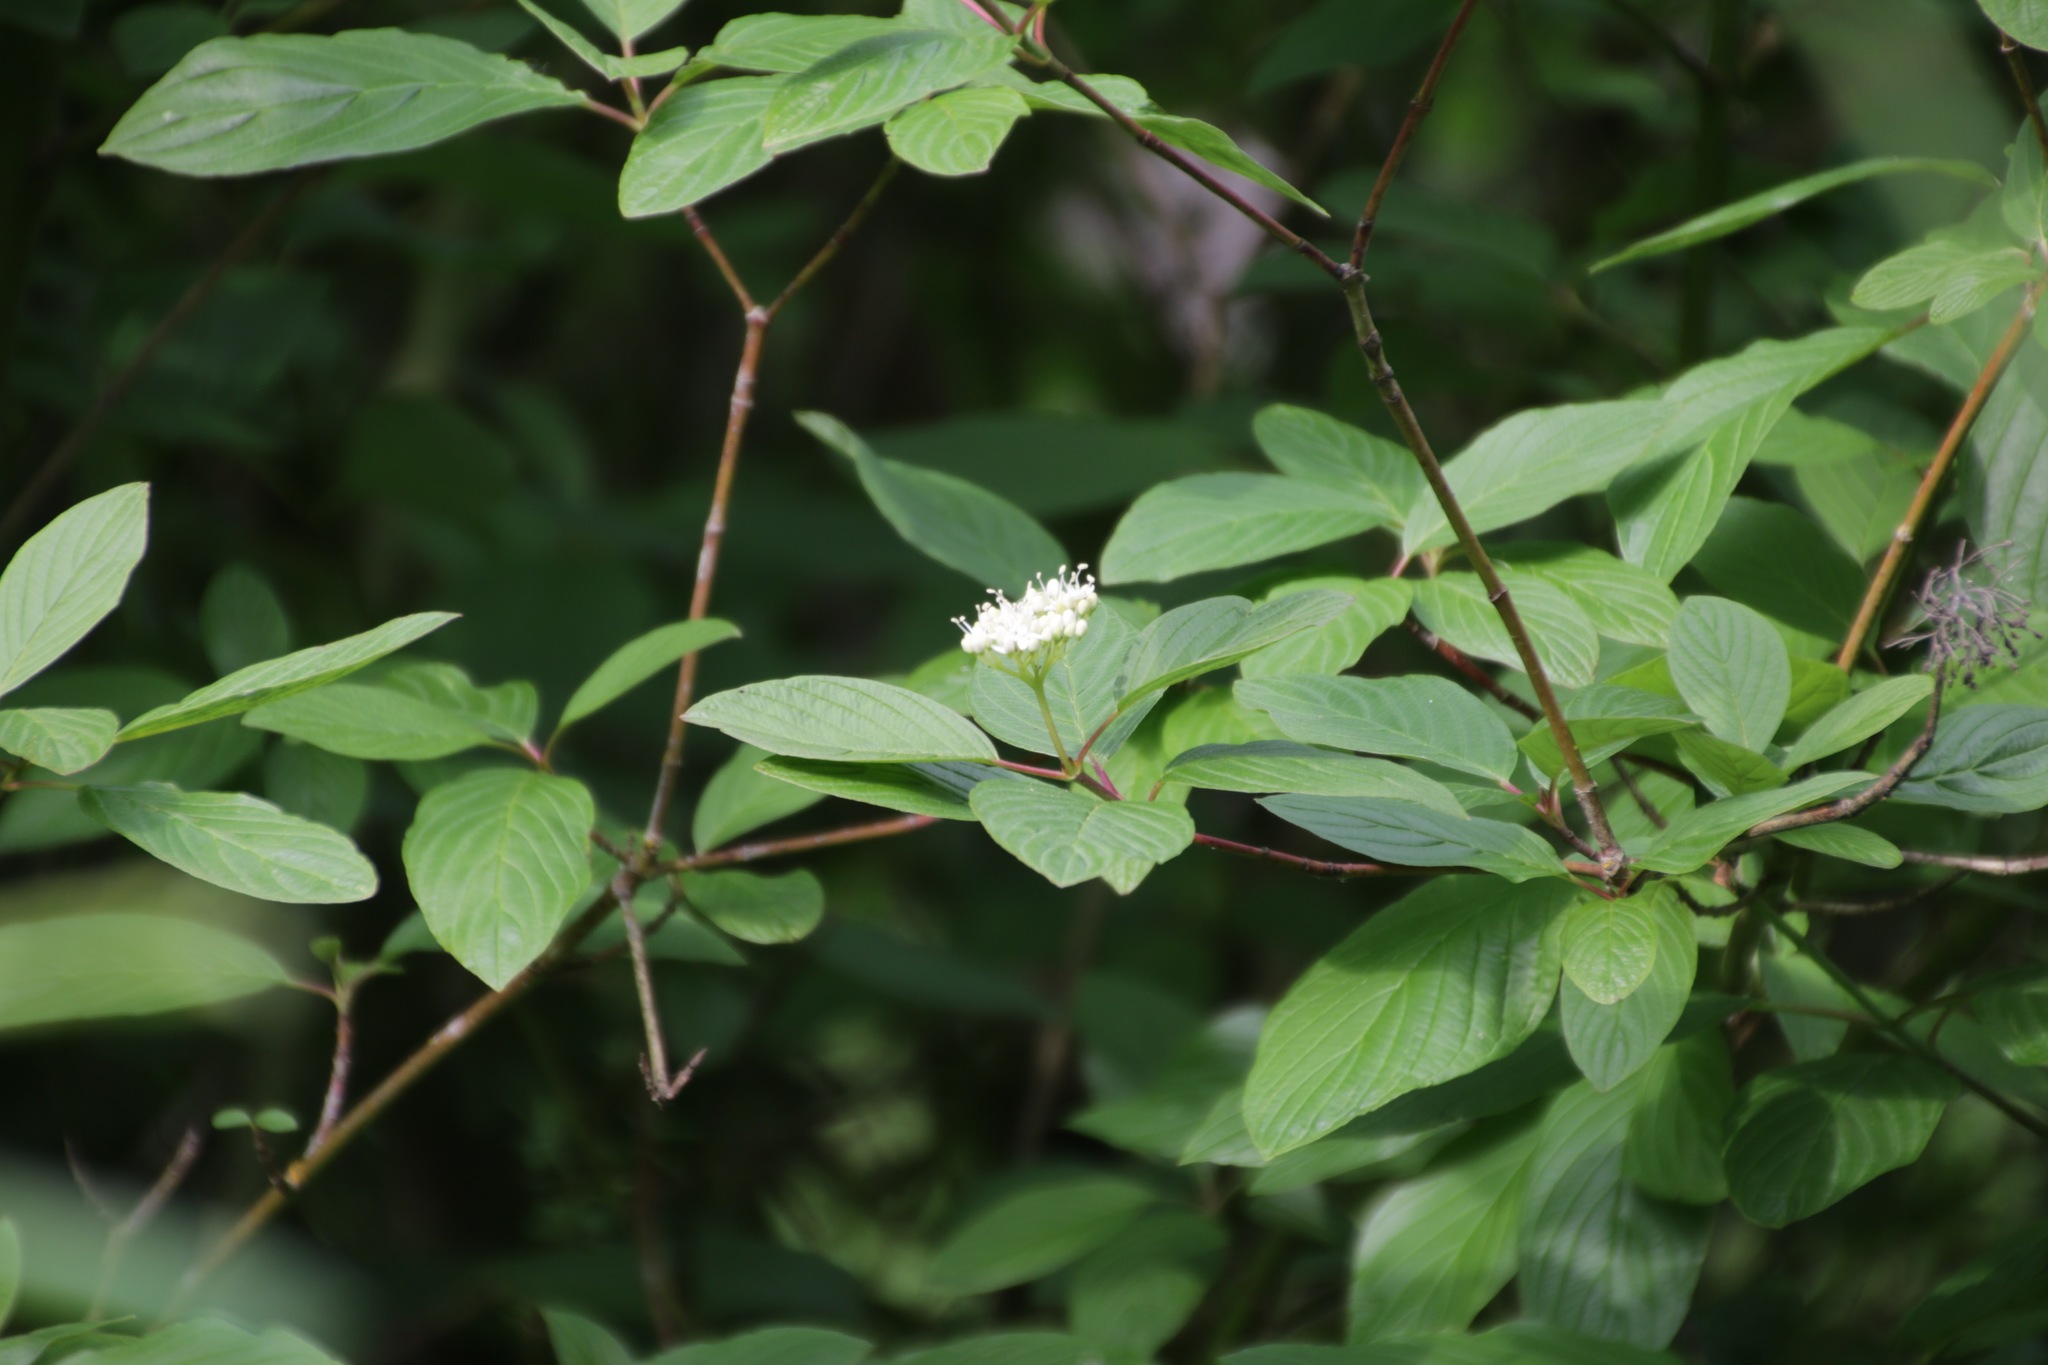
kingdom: Plantae
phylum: Tracheophyta
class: Magnoliopsida
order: Cornales
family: Cornaceae
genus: Cornus
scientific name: Cornus sericea
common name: Red-osier dogwood
